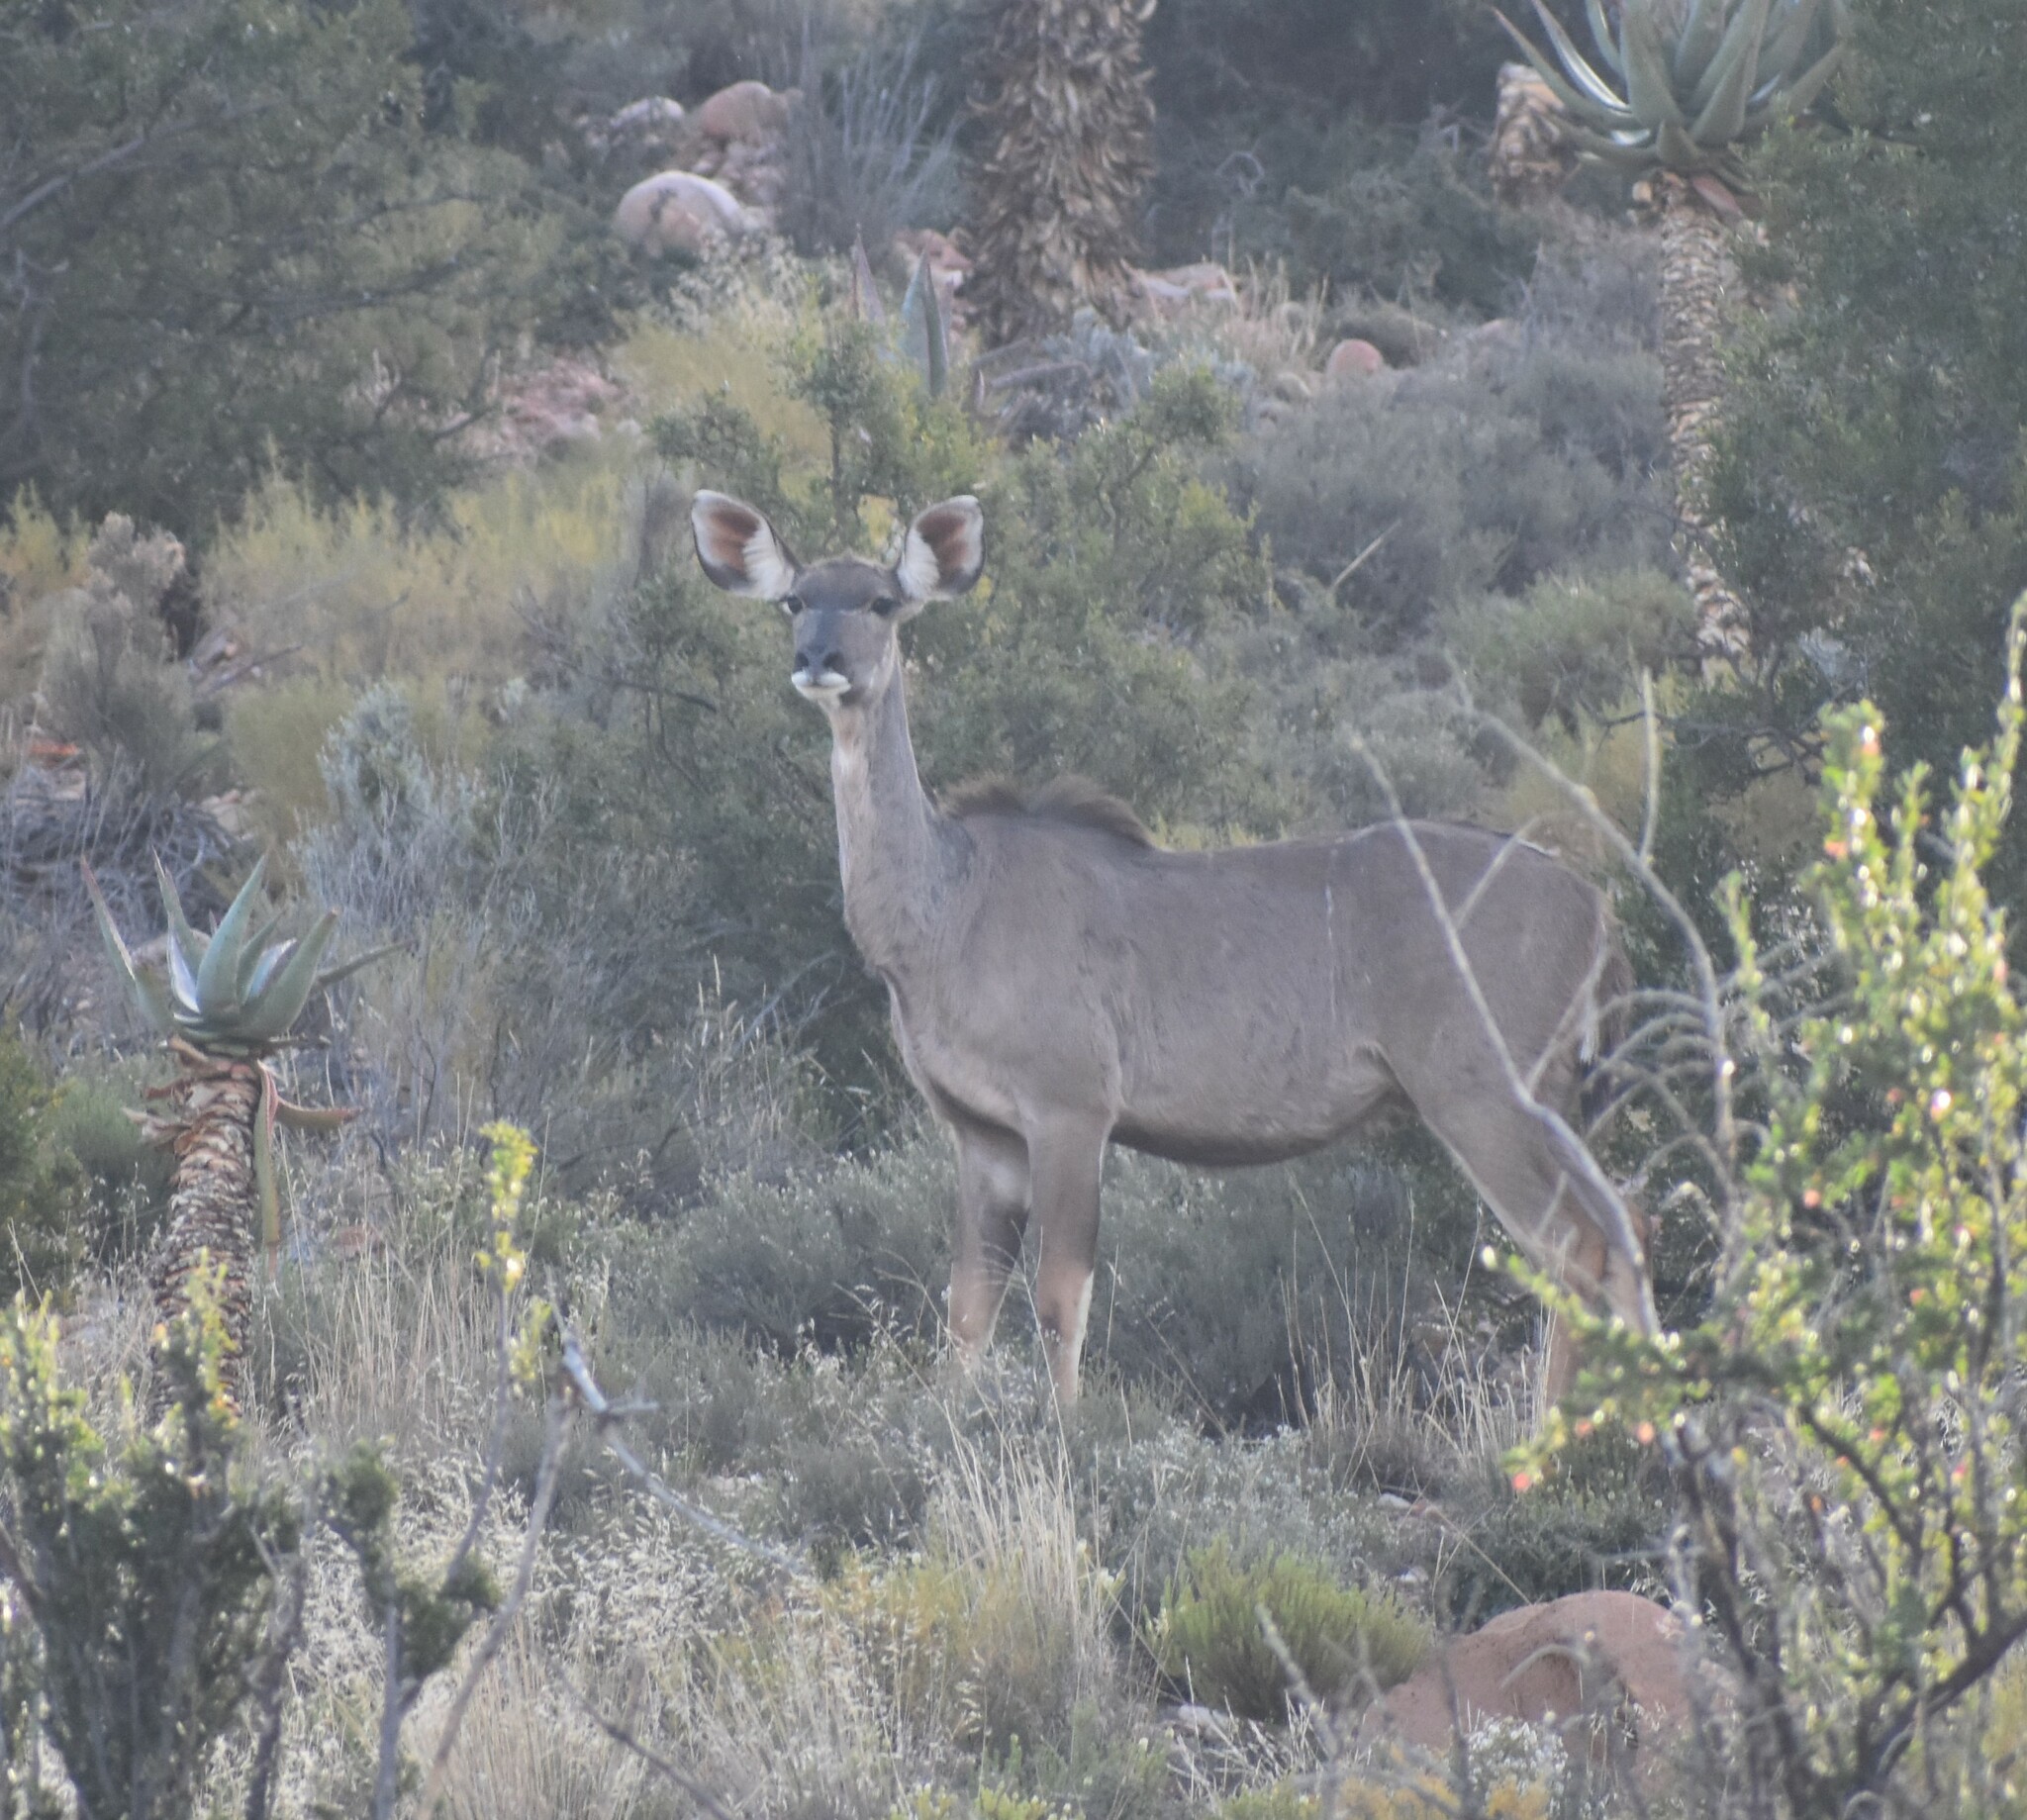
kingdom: Animalia
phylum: Chordata
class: Mammalia
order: Artiodactyla
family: Bovidae
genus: Tragelaphus
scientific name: Tragelaphus strepsiceros
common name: Greater kudu
